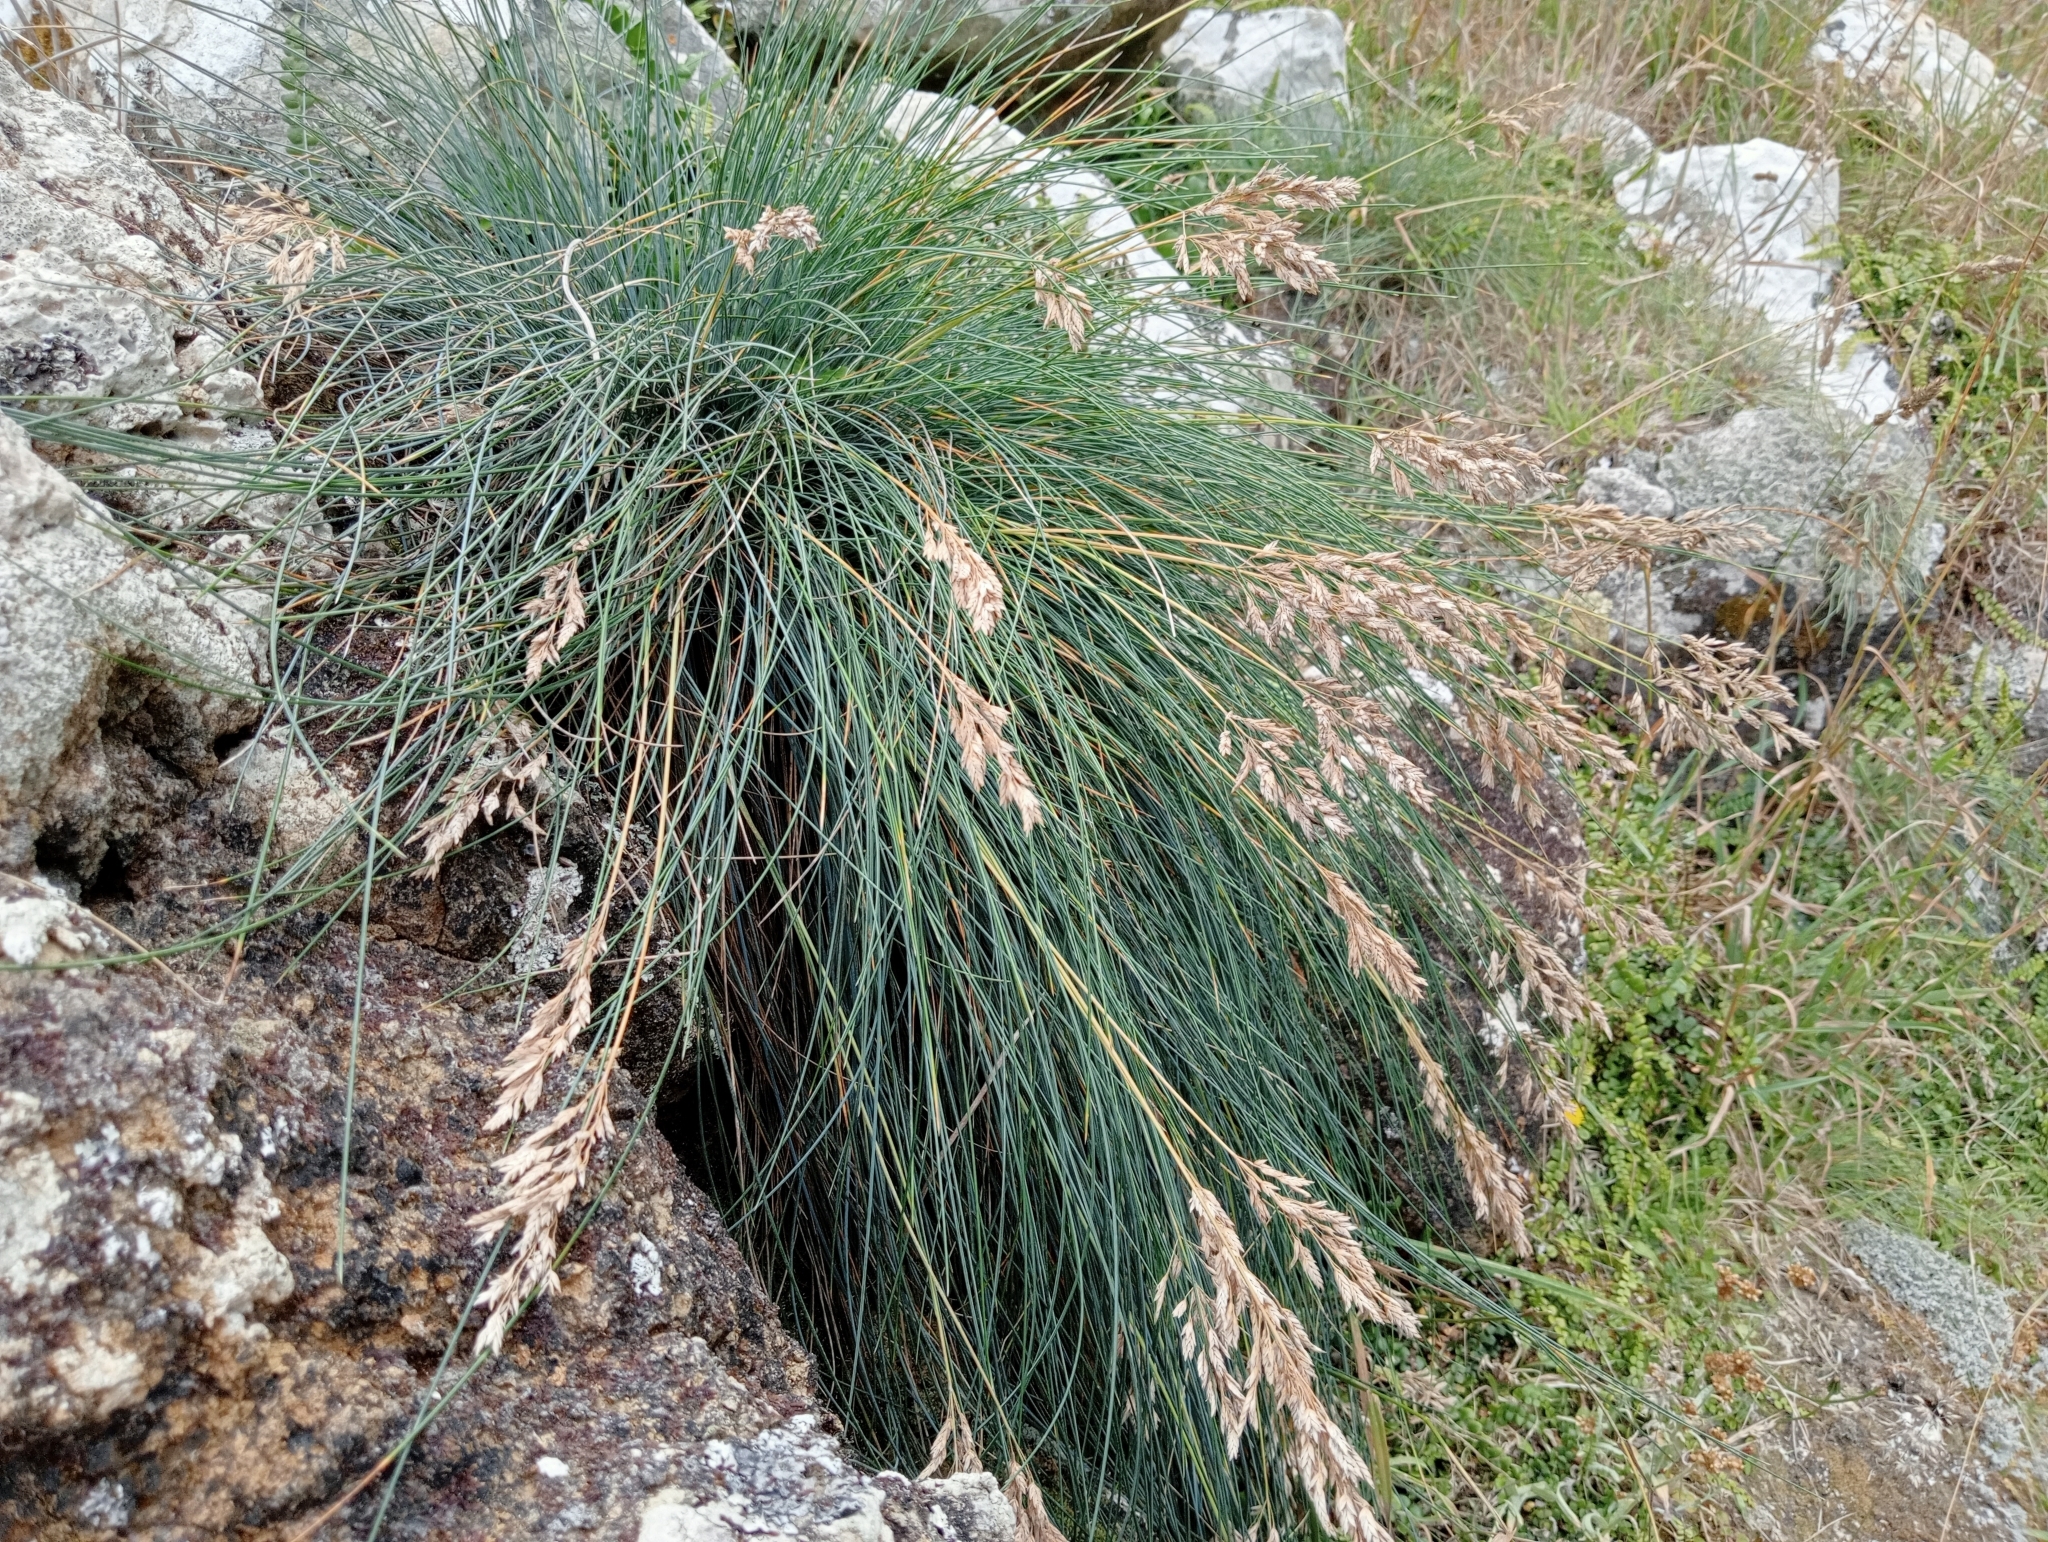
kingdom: Plantae
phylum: Tracheophyta
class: Liliopsida
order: Poales
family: Poaceae
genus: Poa
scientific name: Poa astonii
